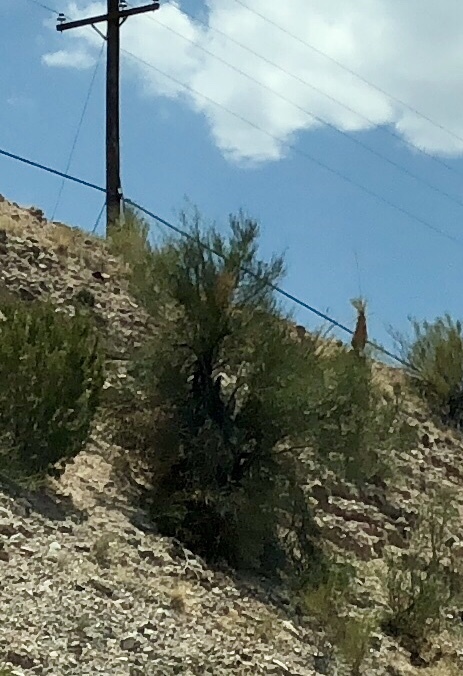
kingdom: Plantae
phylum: Tracheophyta
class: Magnoliopsida
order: Celastrales
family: Celastraceae
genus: Canotia
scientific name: Canotia holacantha
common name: Crucifixion thorns
